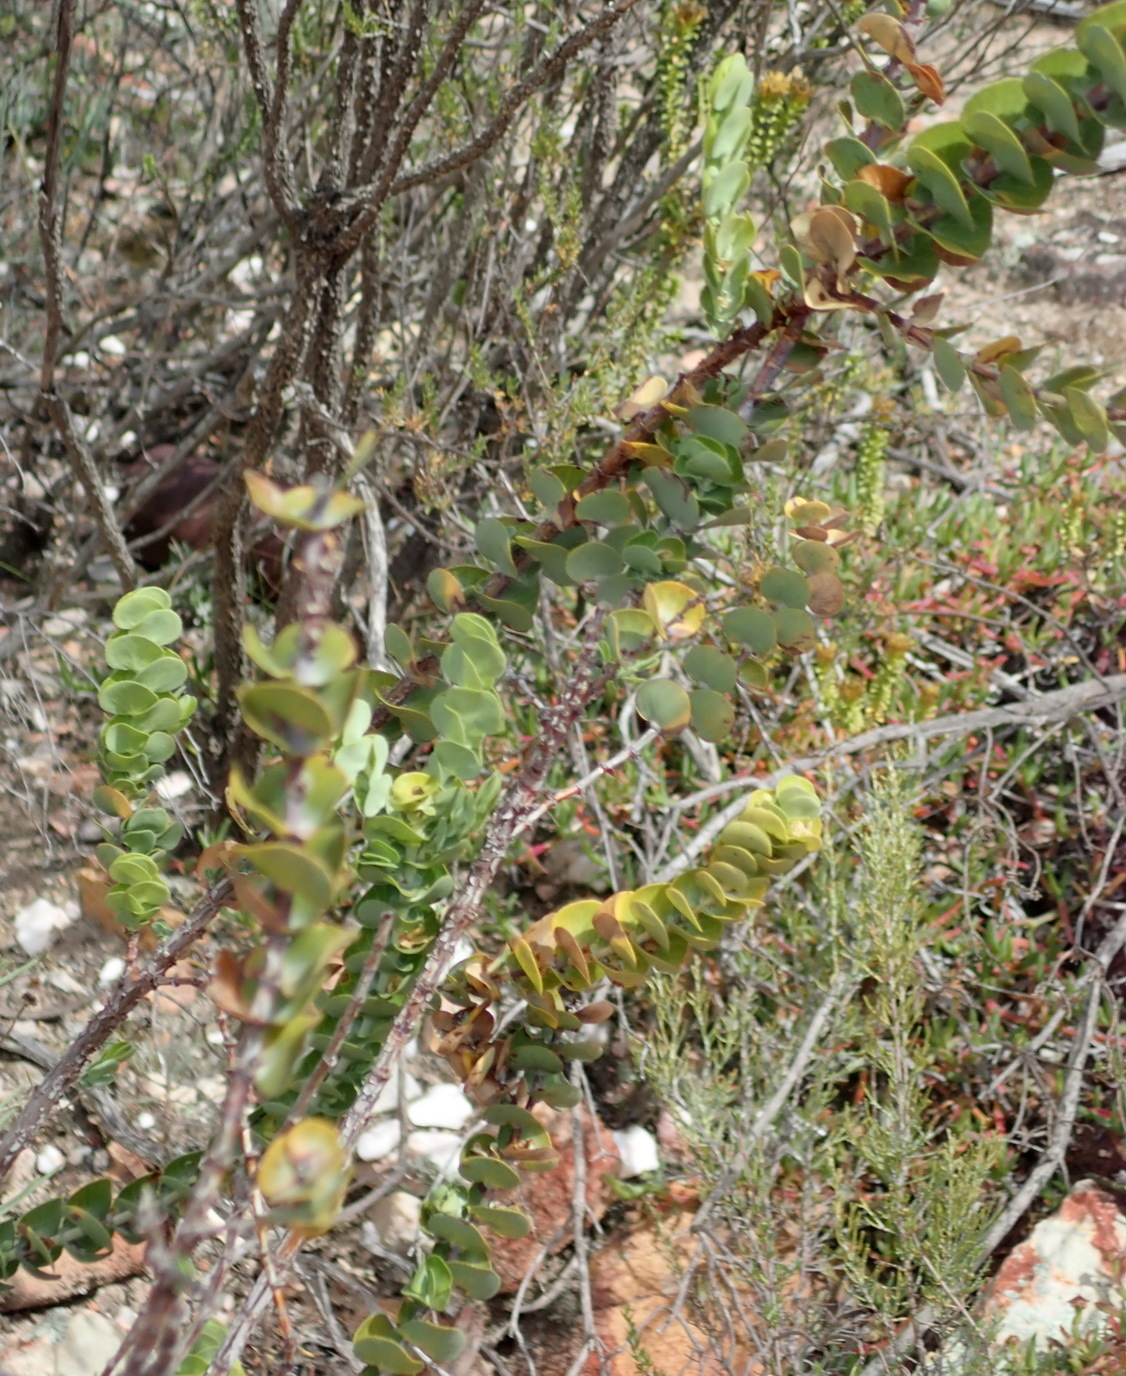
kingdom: Plantae
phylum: Tracheophyta
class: Magnoliopsida
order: Rosales
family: Rosaceae
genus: Cliffortia
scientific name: Cliffortia crenata
